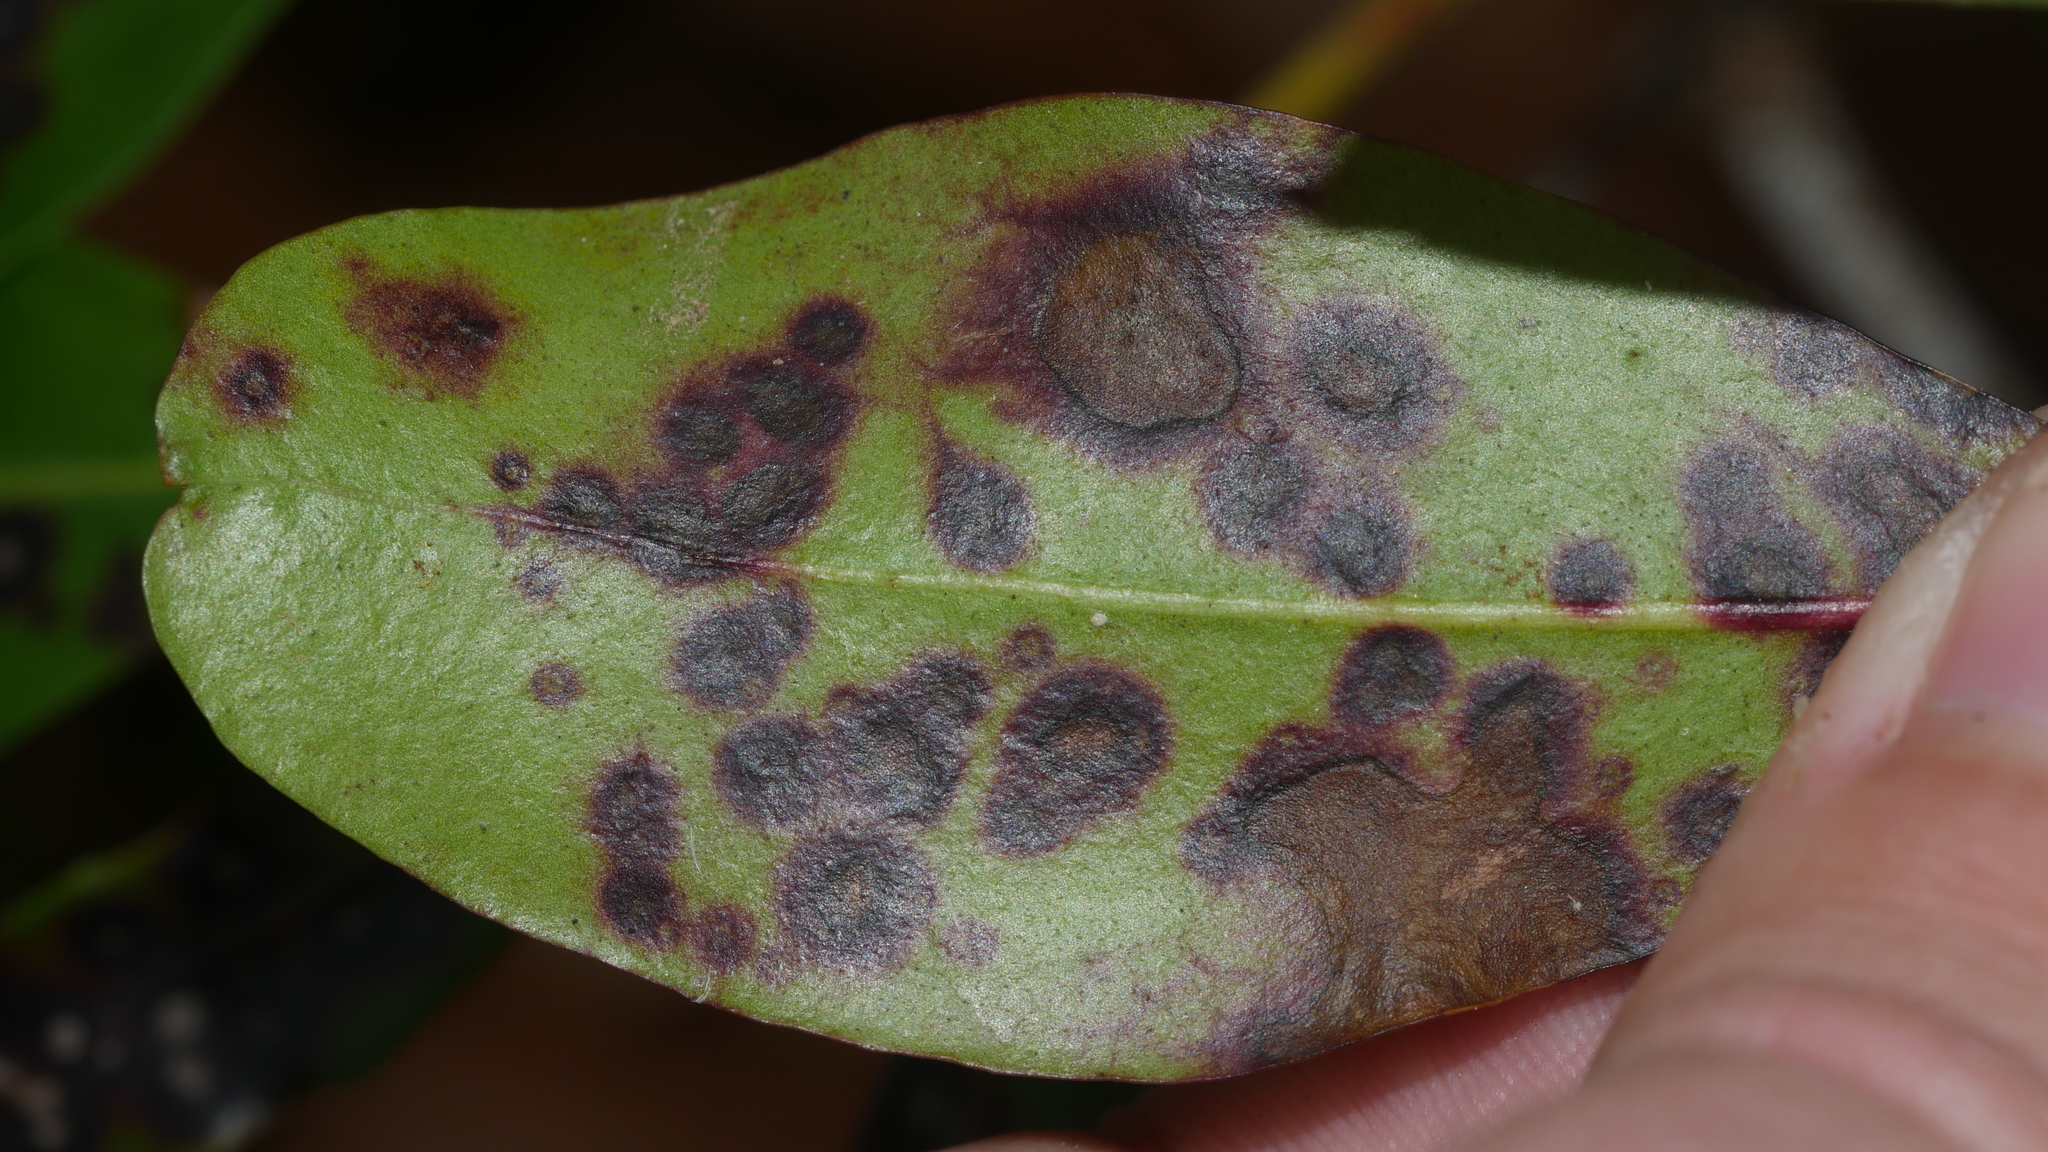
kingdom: Fungi
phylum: Ascomycota
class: Dothideomycetes
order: Mycosphaerellales
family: Mycosphaerellaceae
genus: Mycosphaerella
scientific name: Mycosphaerella colorata
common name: Mountain laurel leaf spot
